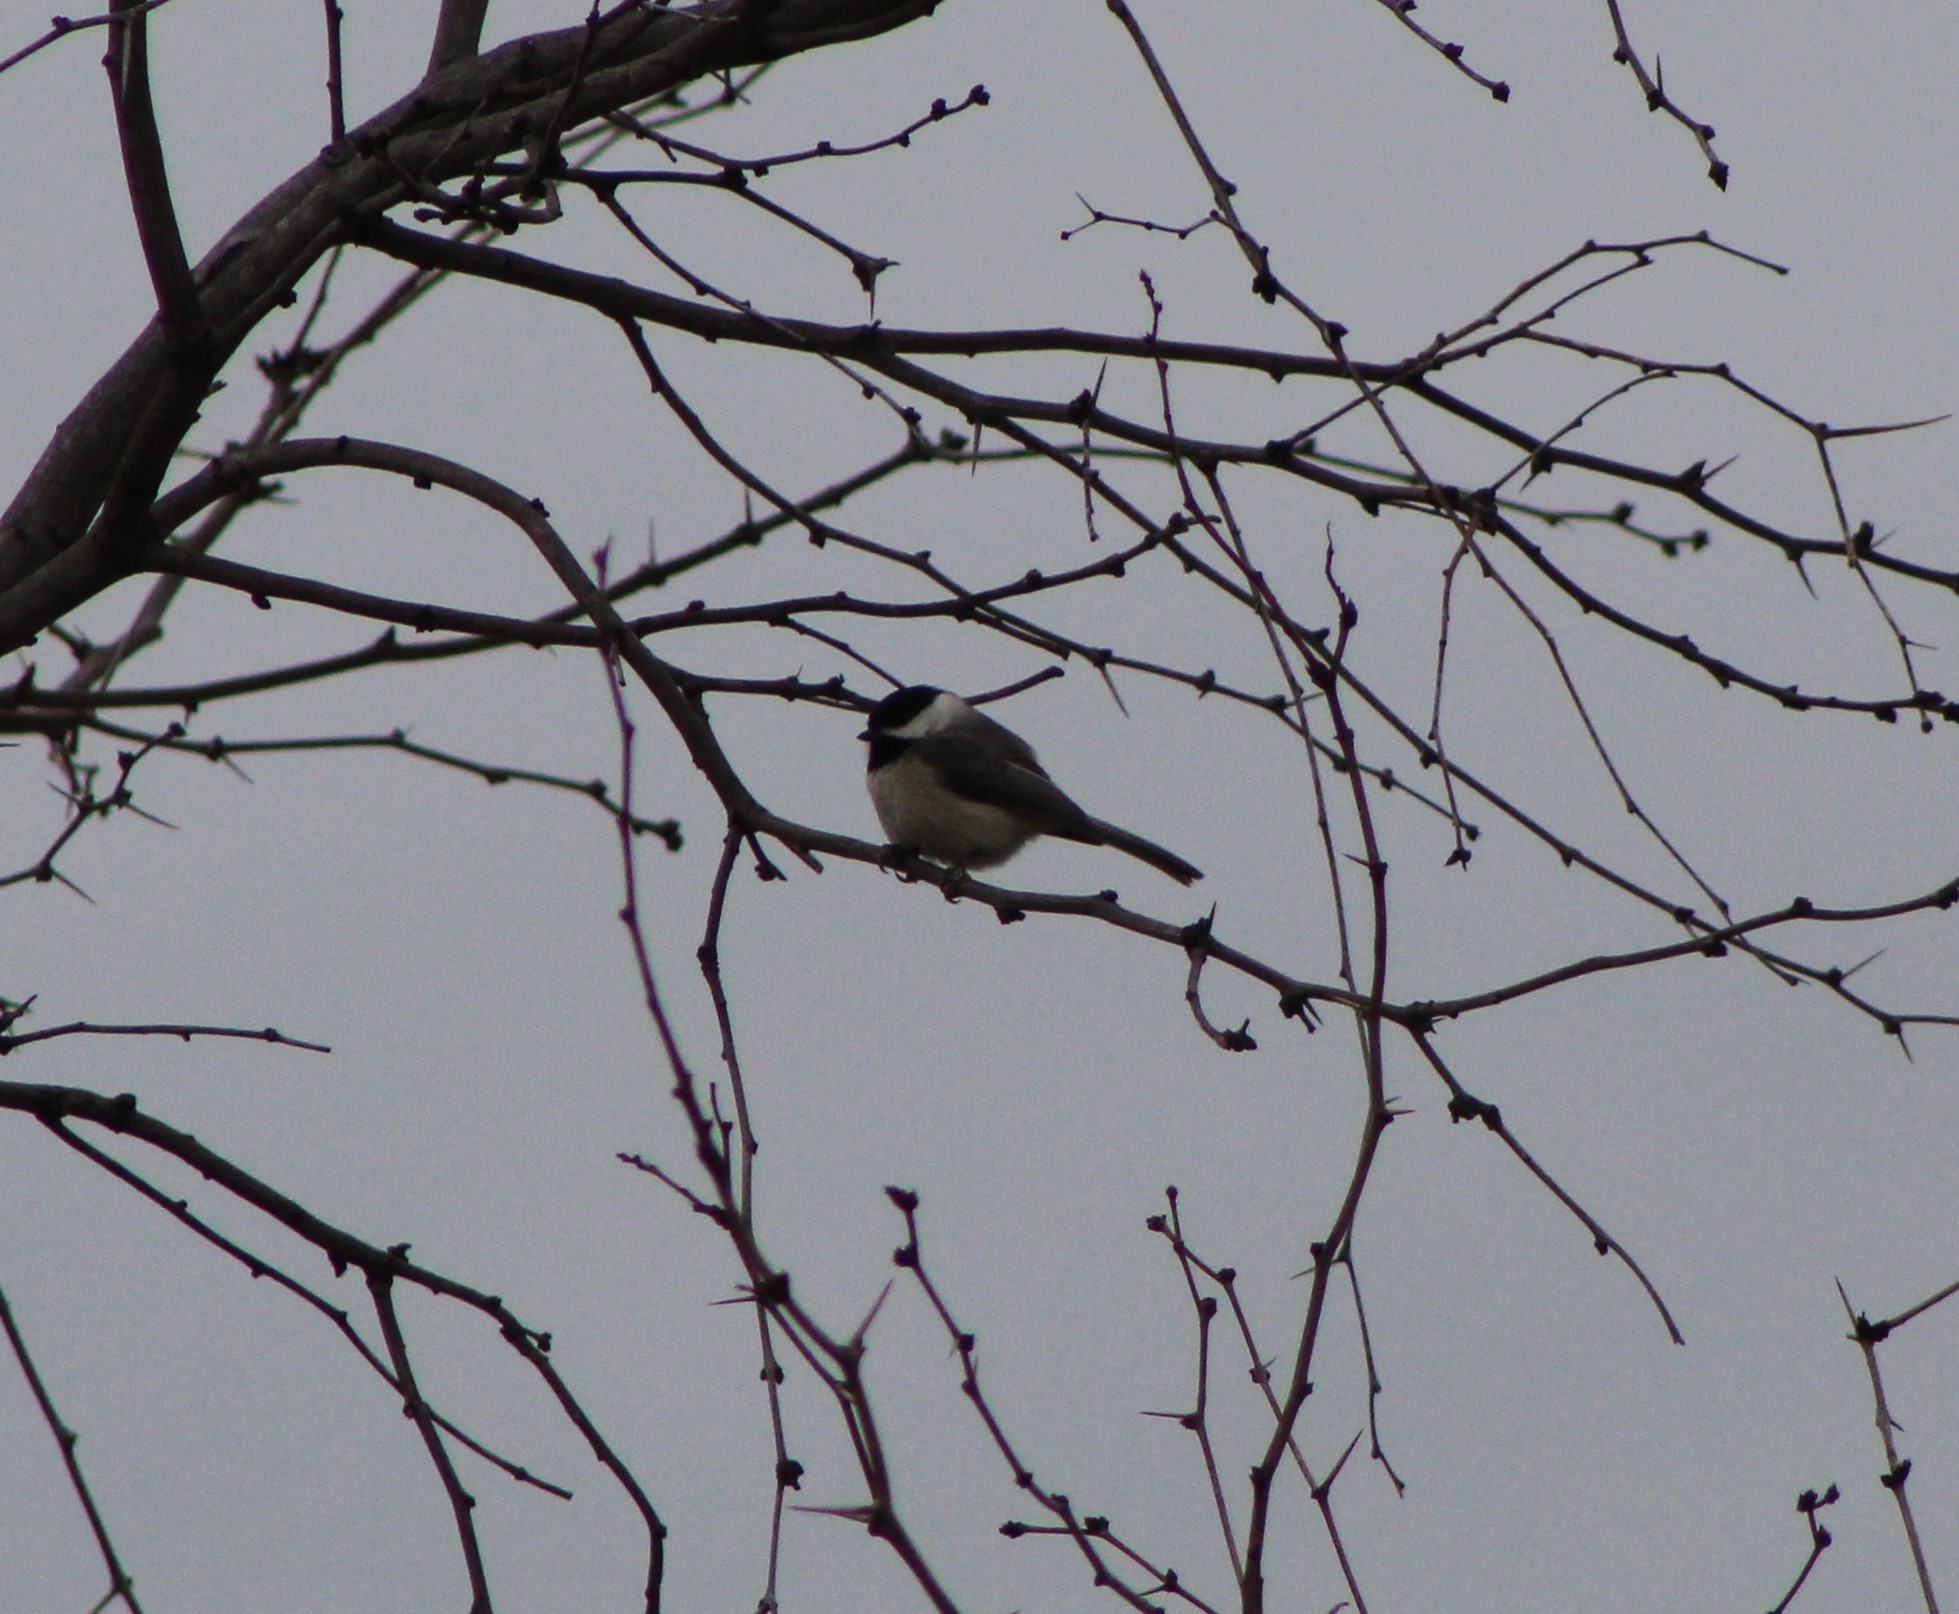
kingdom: Animalia
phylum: Chordata
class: Aves
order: Passeriformes
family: Paridae
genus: Poecile
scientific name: Poecile carolinensis
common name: Carolina chickadee
